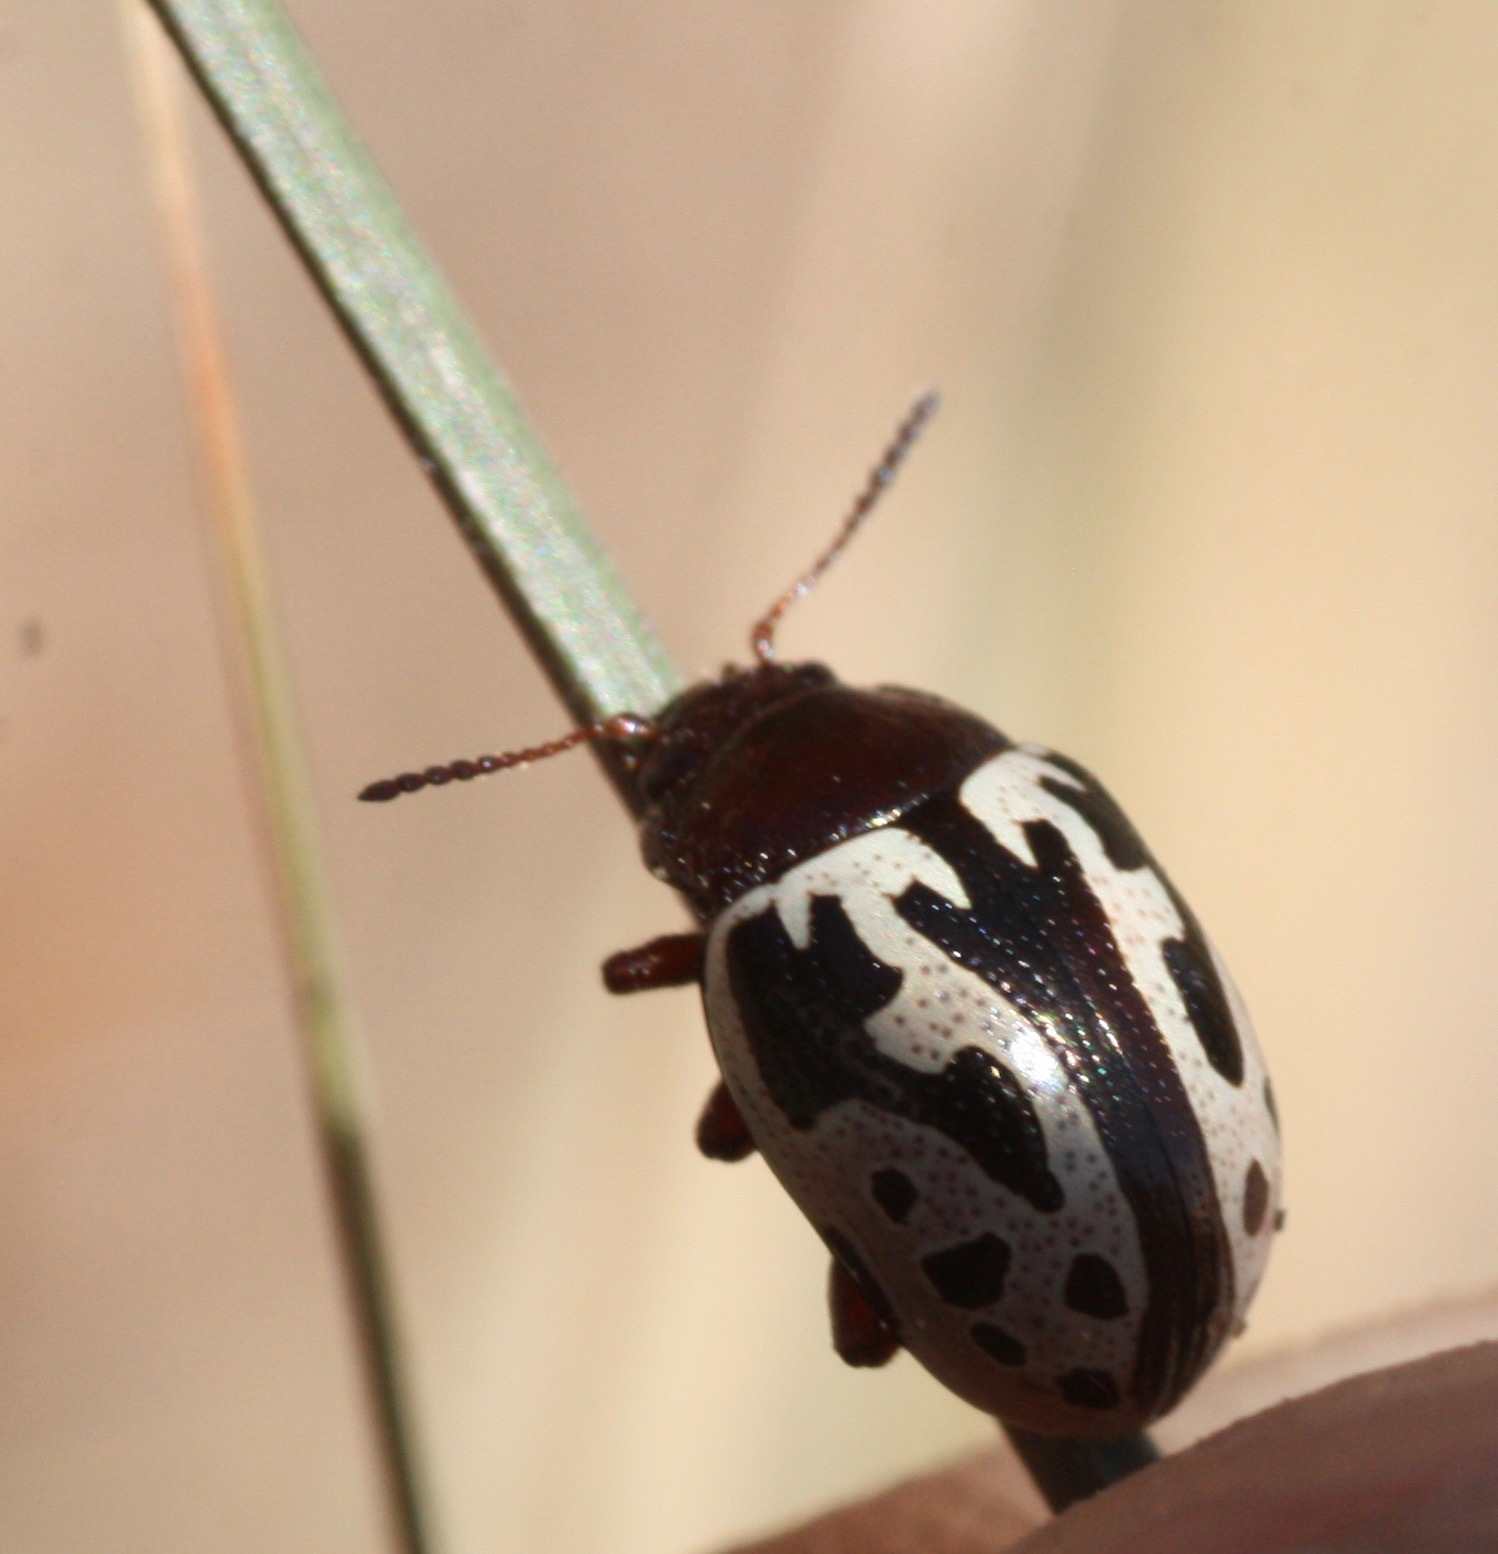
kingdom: Animalia
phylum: Arthropoda
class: Insecta
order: Coleoptera
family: Chrysomelidae
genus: Calligrapha
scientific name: Calligrapha
